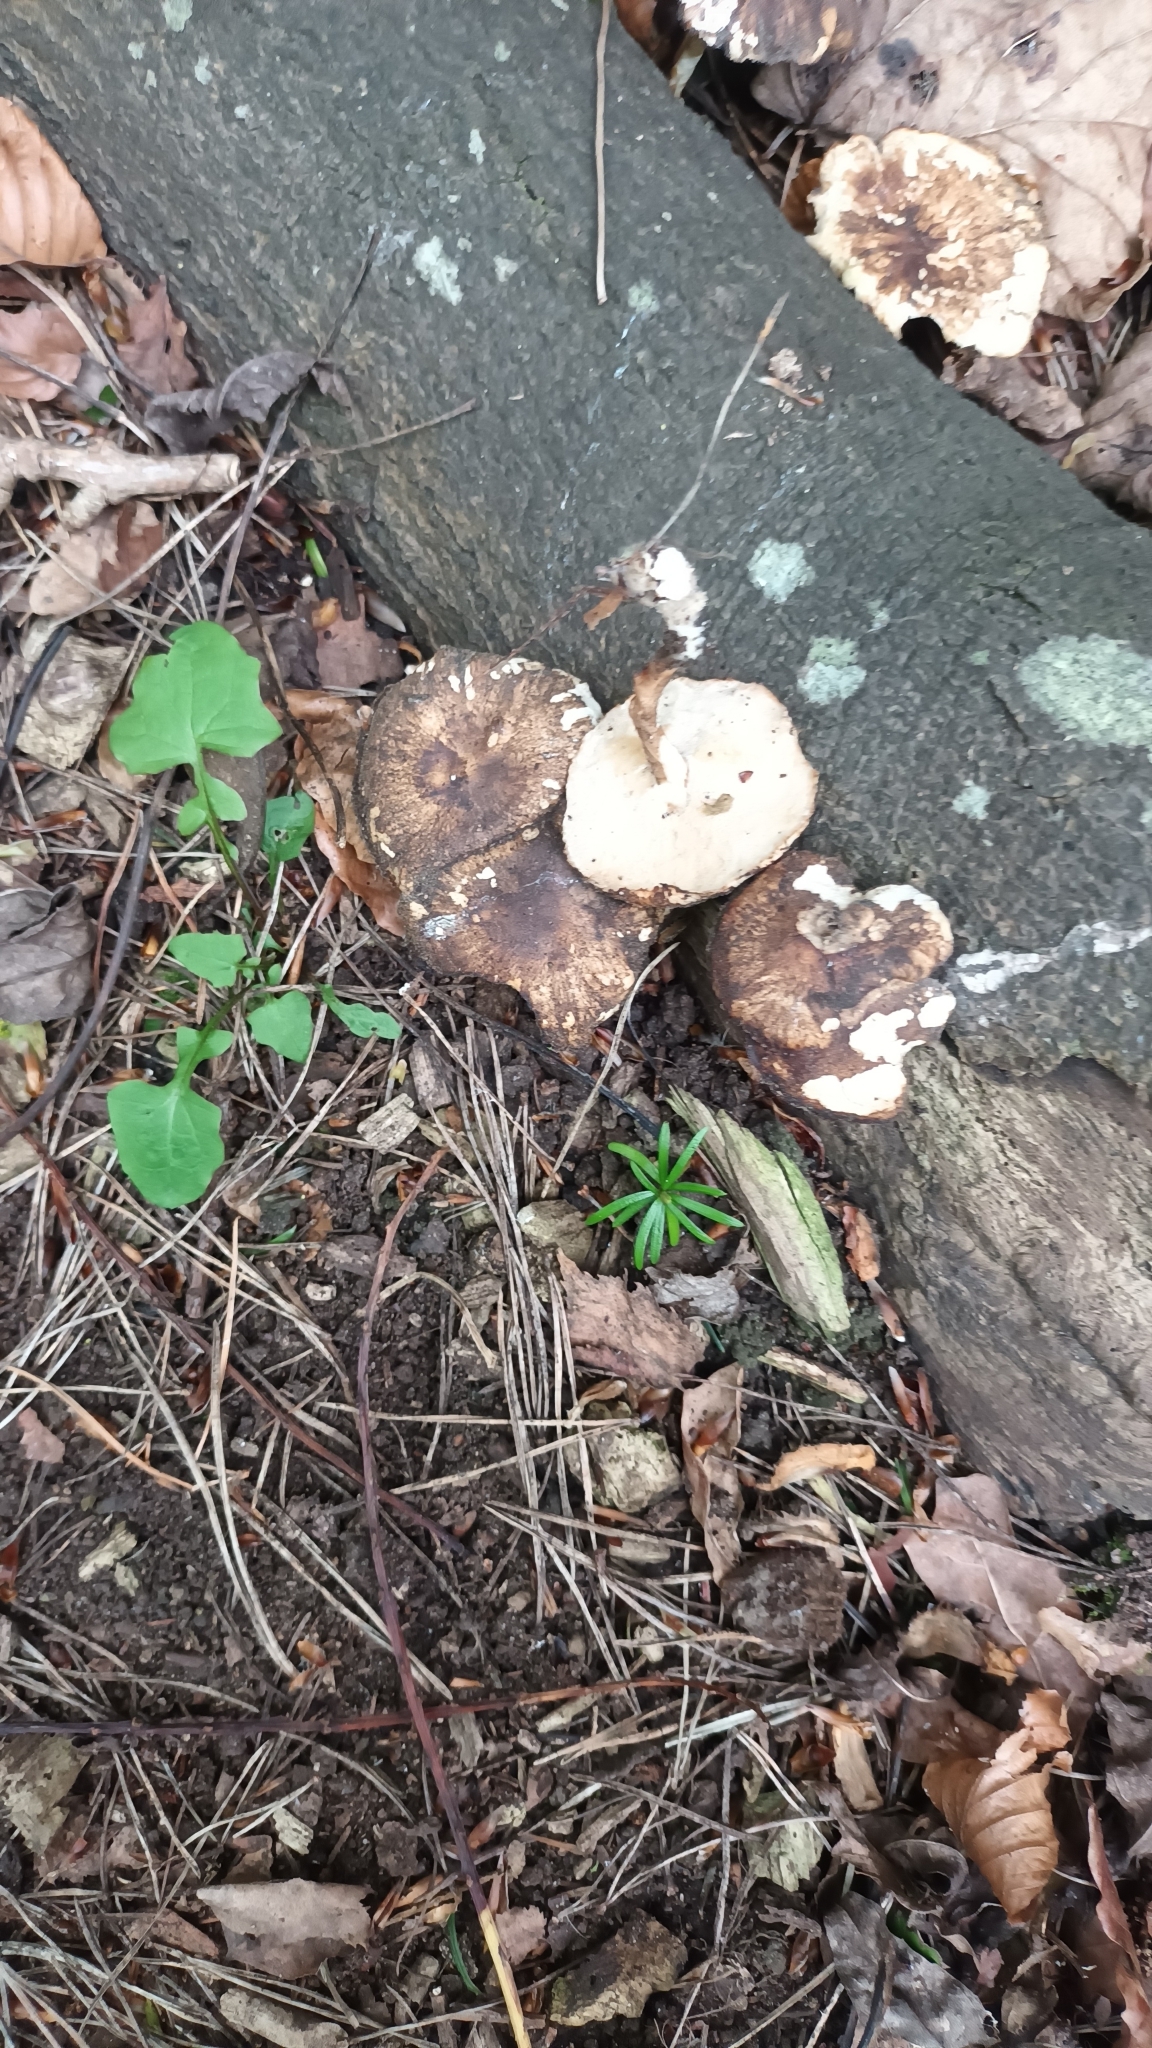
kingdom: Fungi
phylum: Basidiomycota
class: Agaricomycetes
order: Polyporales
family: Polyporaceae
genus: Lentinus
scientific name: Lentinus brumalis
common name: Winter polypore
